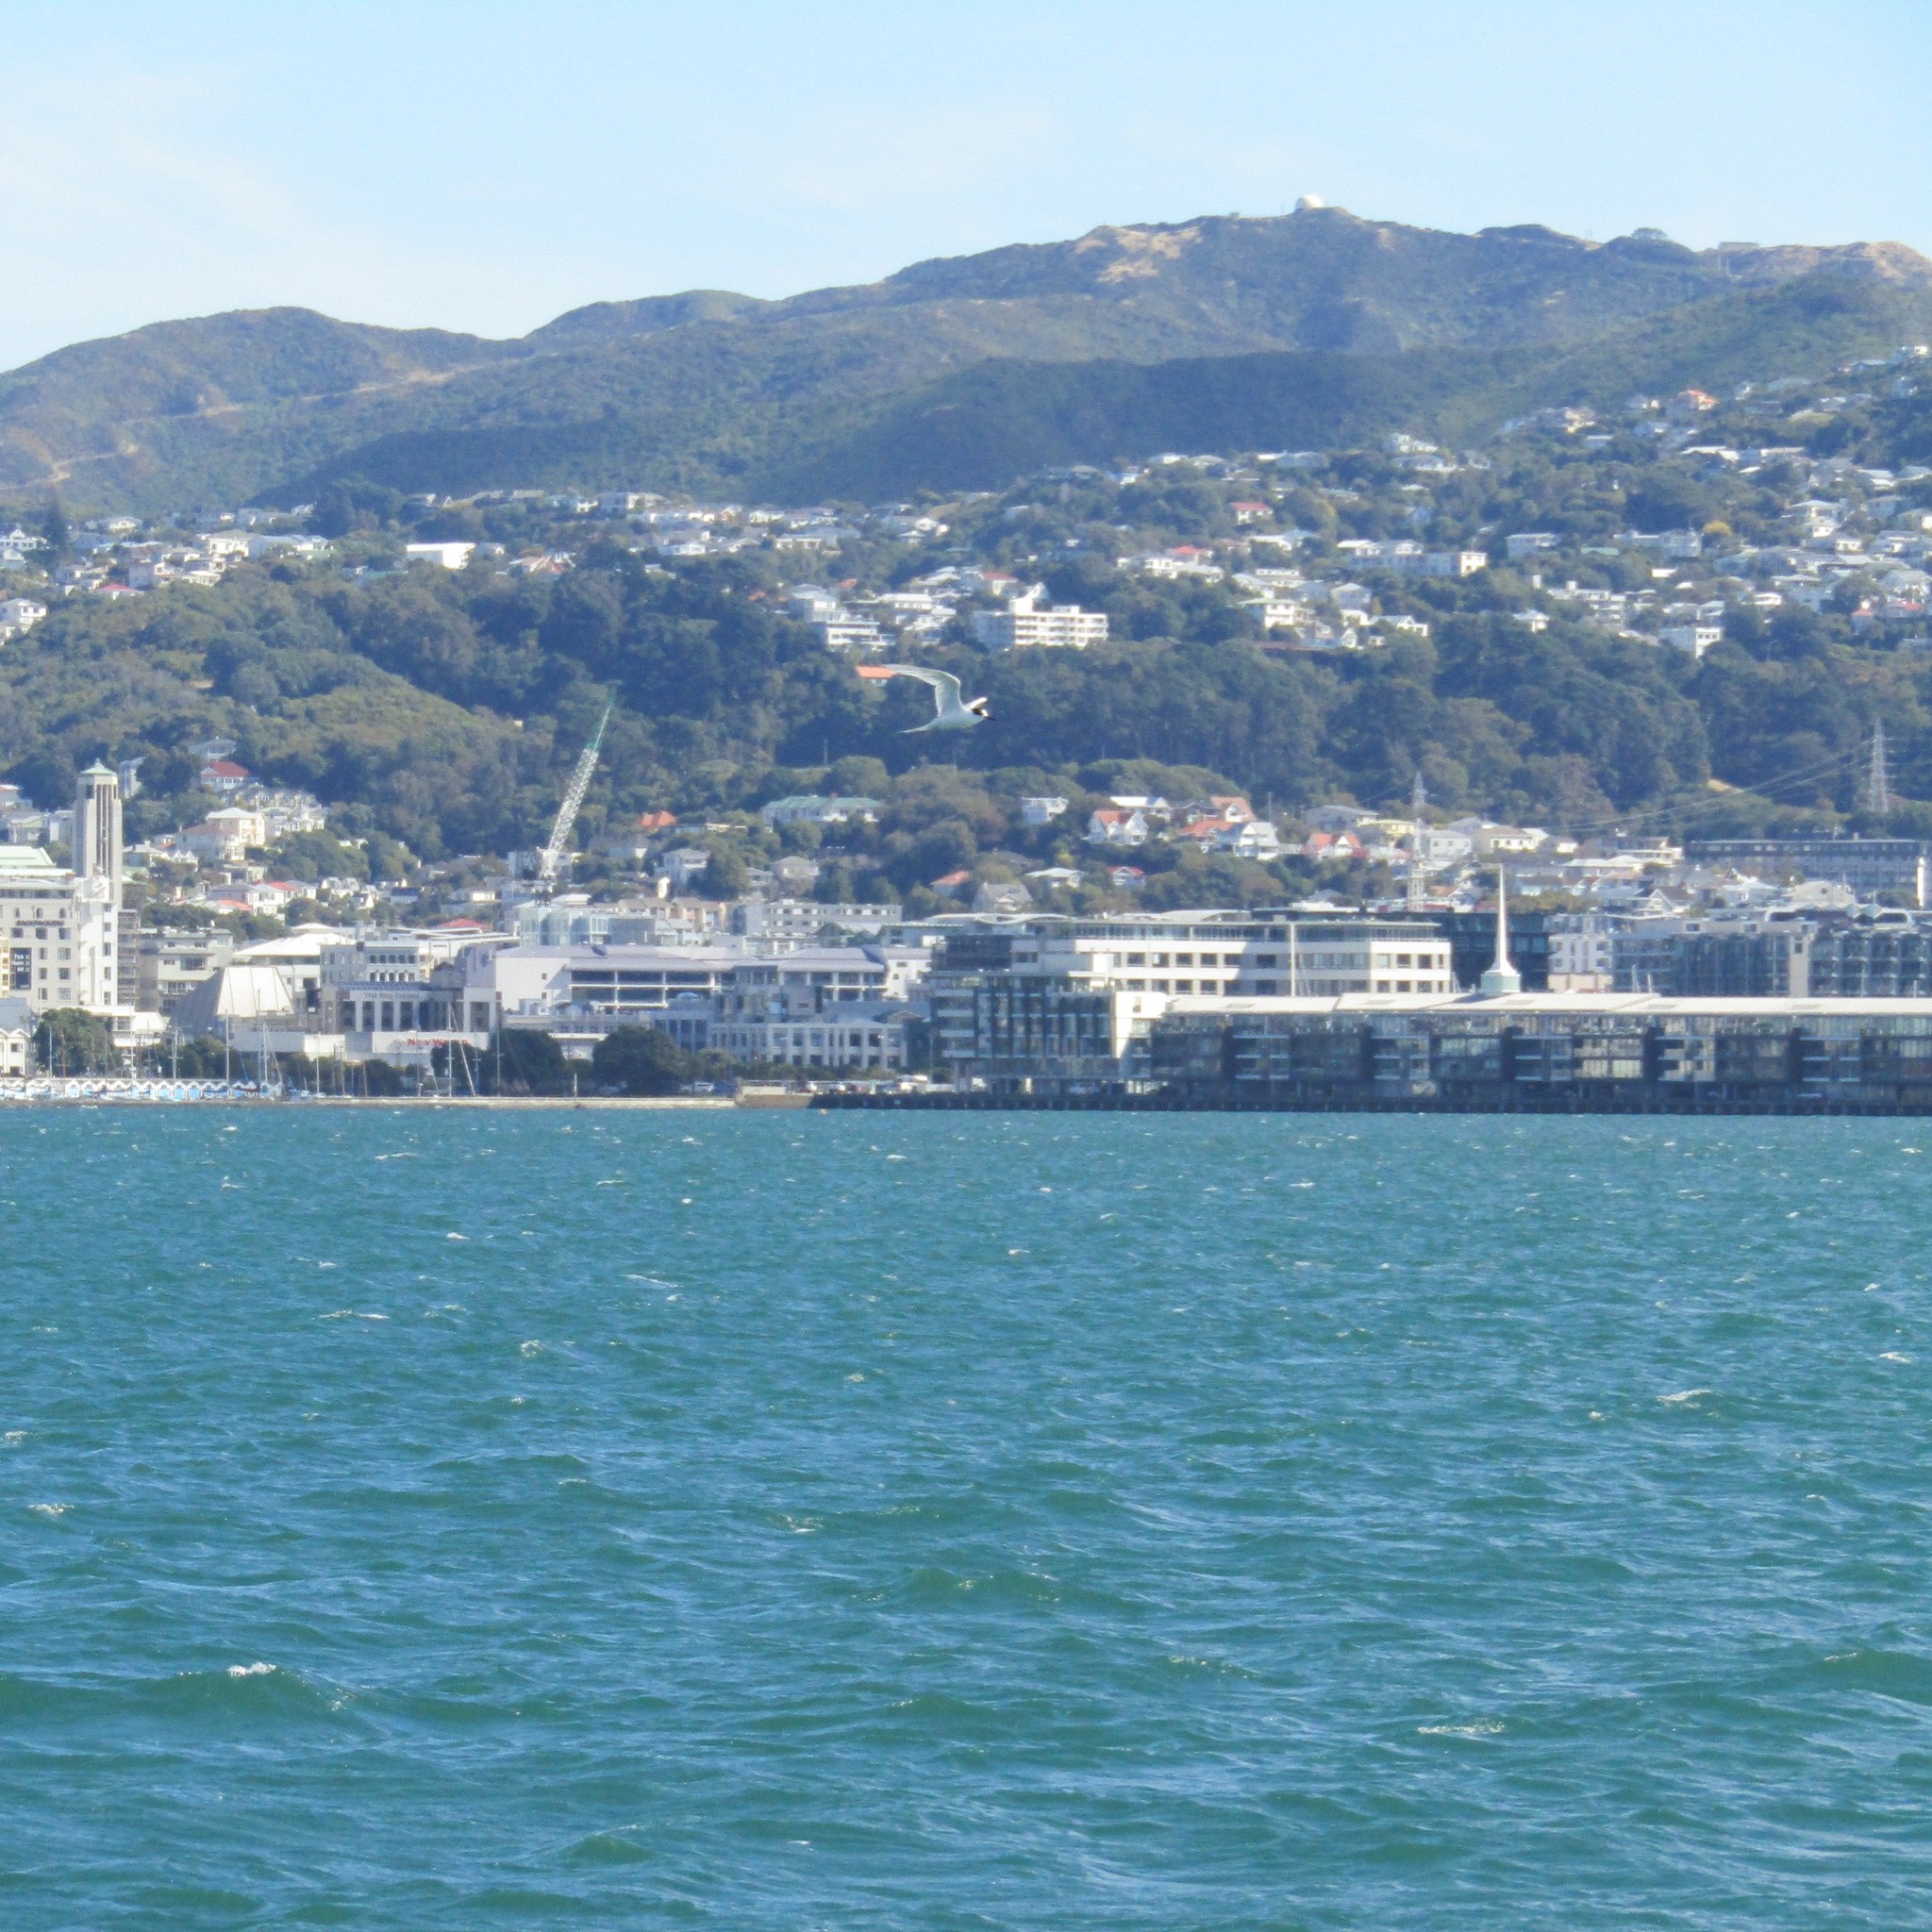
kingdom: Animalia
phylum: Chordata
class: Aves
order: Charadriiformes
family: Laridae
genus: Sterna
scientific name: Sterna striata
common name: White-fronted tern
